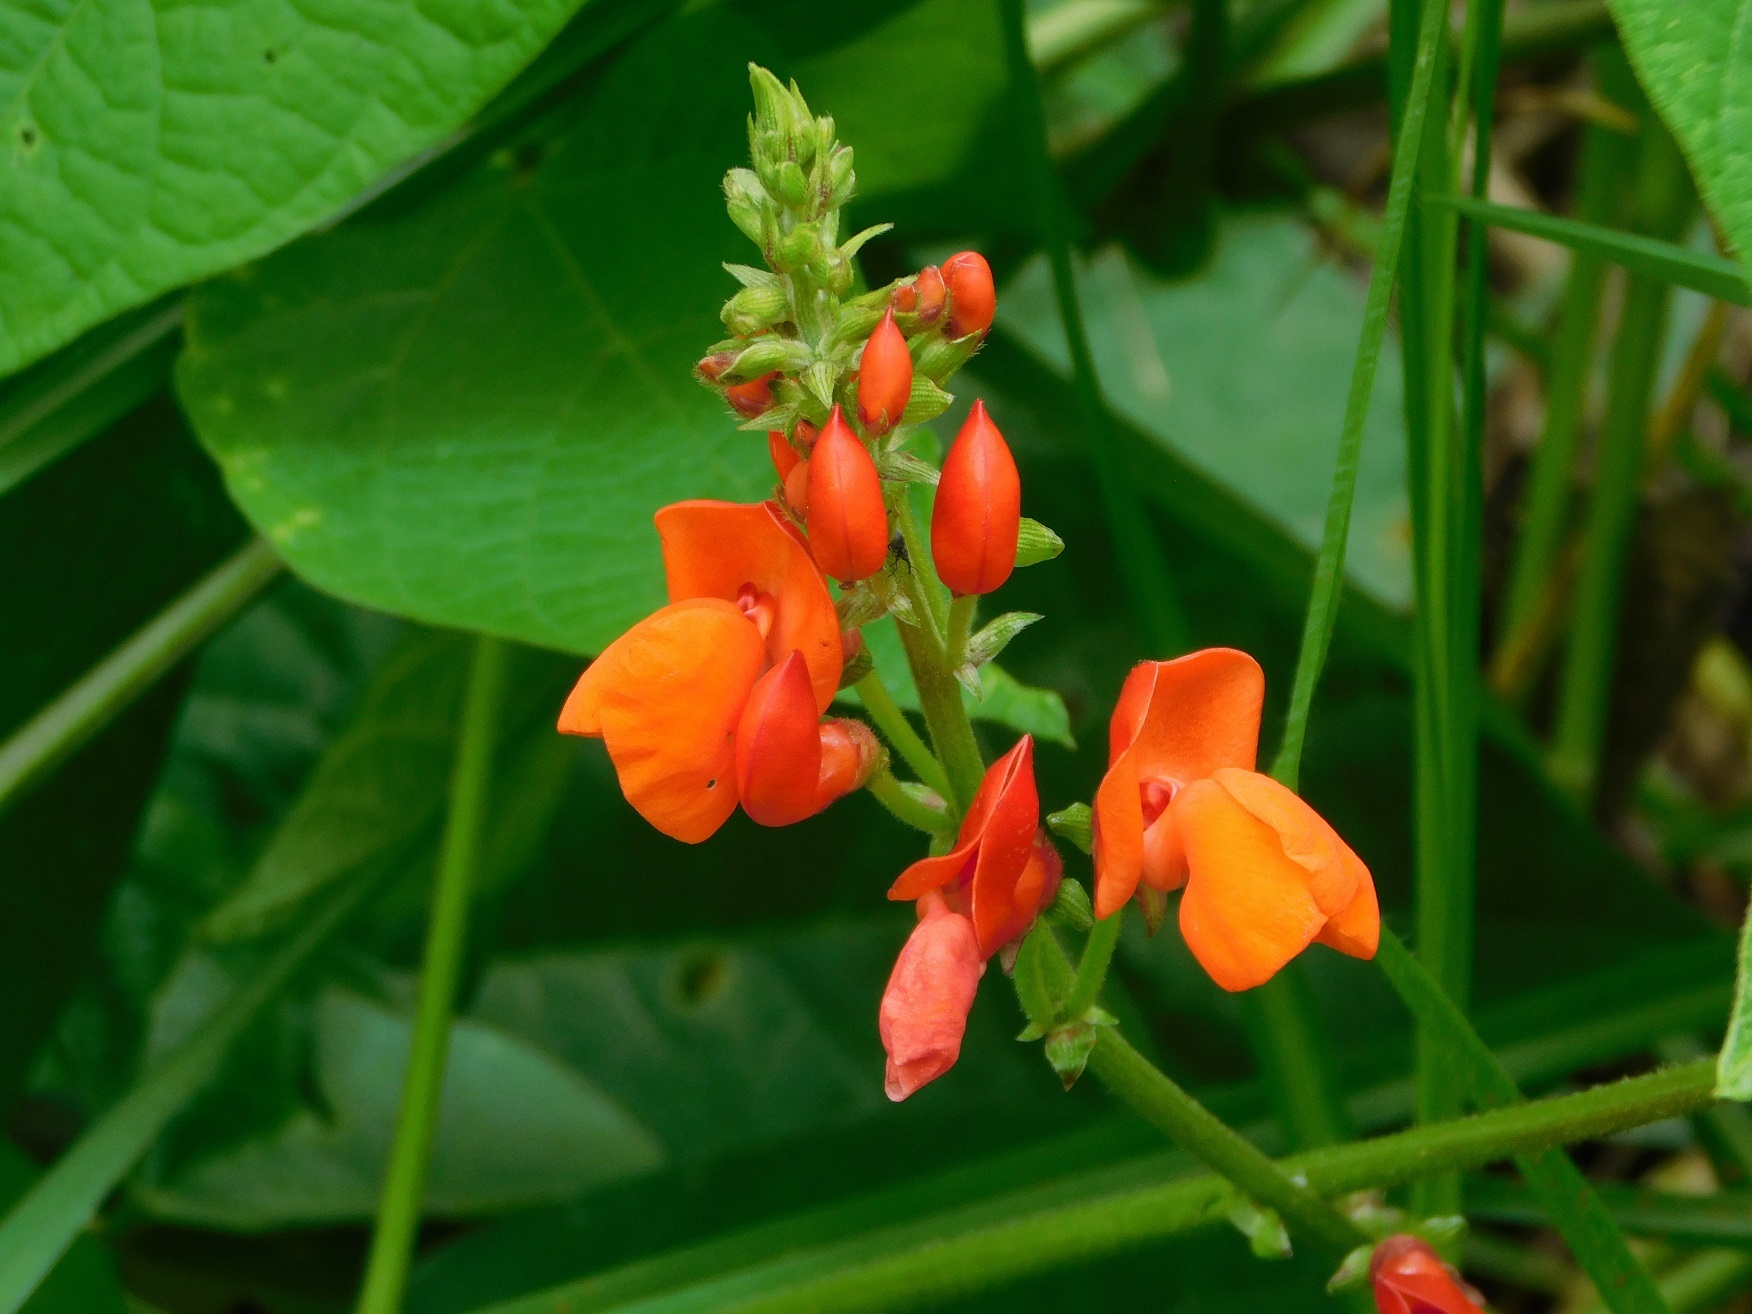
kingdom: Plantae
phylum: Tracheophyta
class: Magnoliopsida
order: Fabales
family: Fabaceae
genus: Phaseolus
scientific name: Phaseolus coccineus
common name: Runner bean
